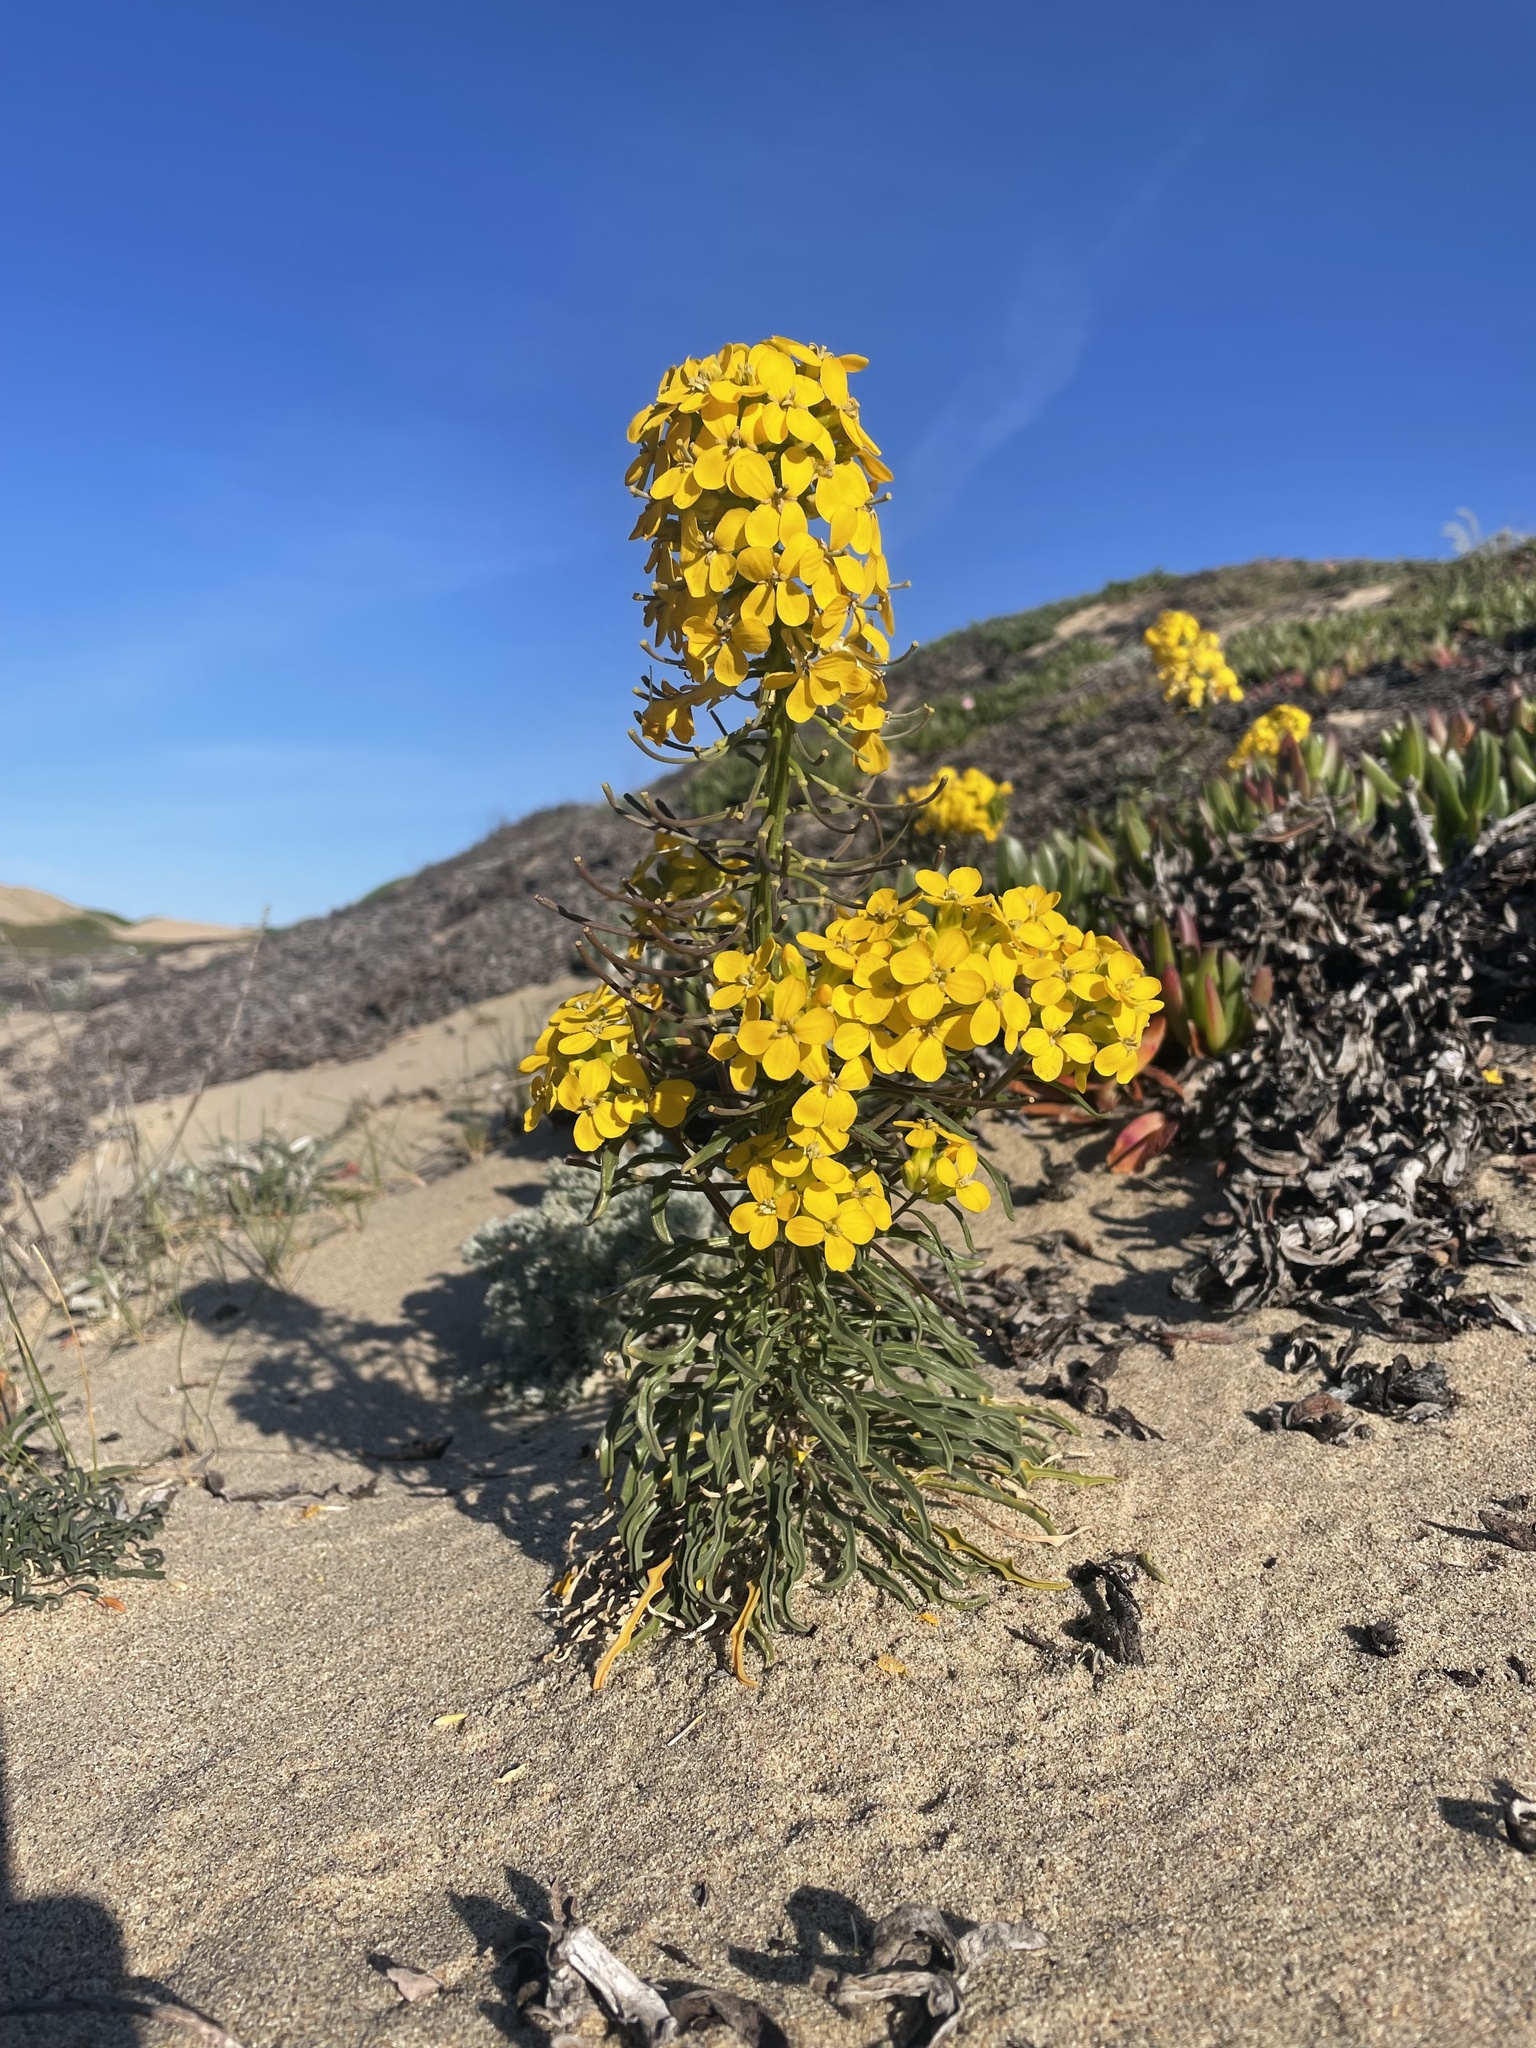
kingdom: Plantae
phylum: Tracheophyta
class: Magnoliopsida
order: Brassicales
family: Brassicaceae
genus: Erysimum
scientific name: Erysimum ammophilum
